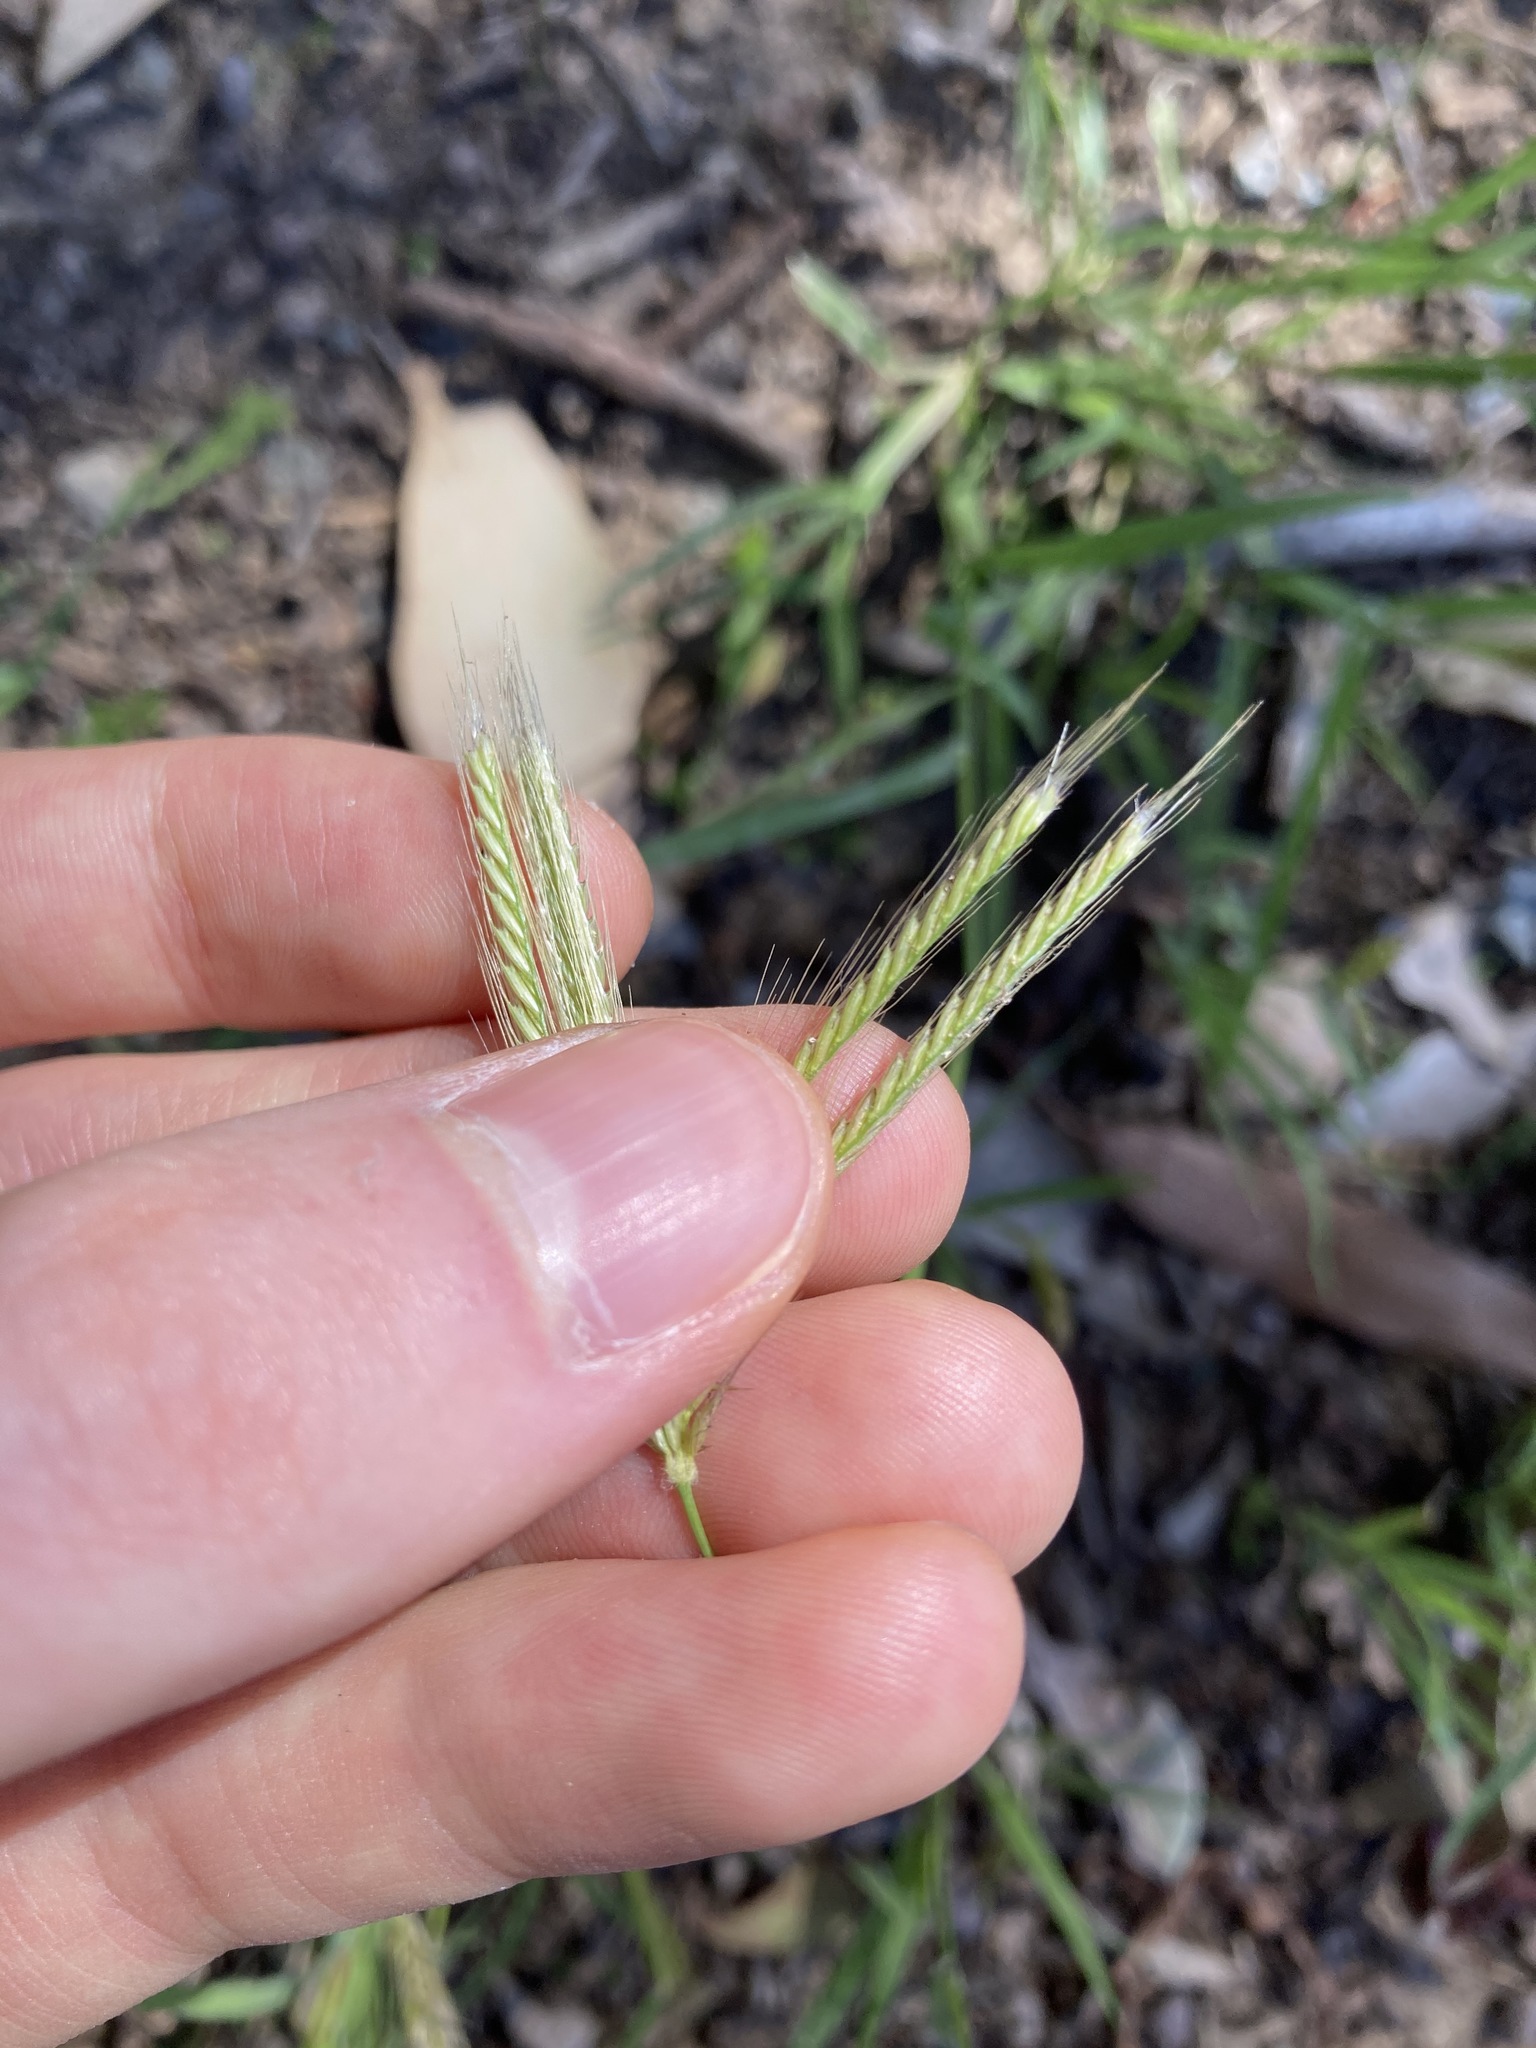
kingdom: Plantae
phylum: Tracheophyta
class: Liliopsida
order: Poales
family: Poaceae
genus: Chloris
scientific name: Chloris virgata
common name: Feathery rhodes-grass
